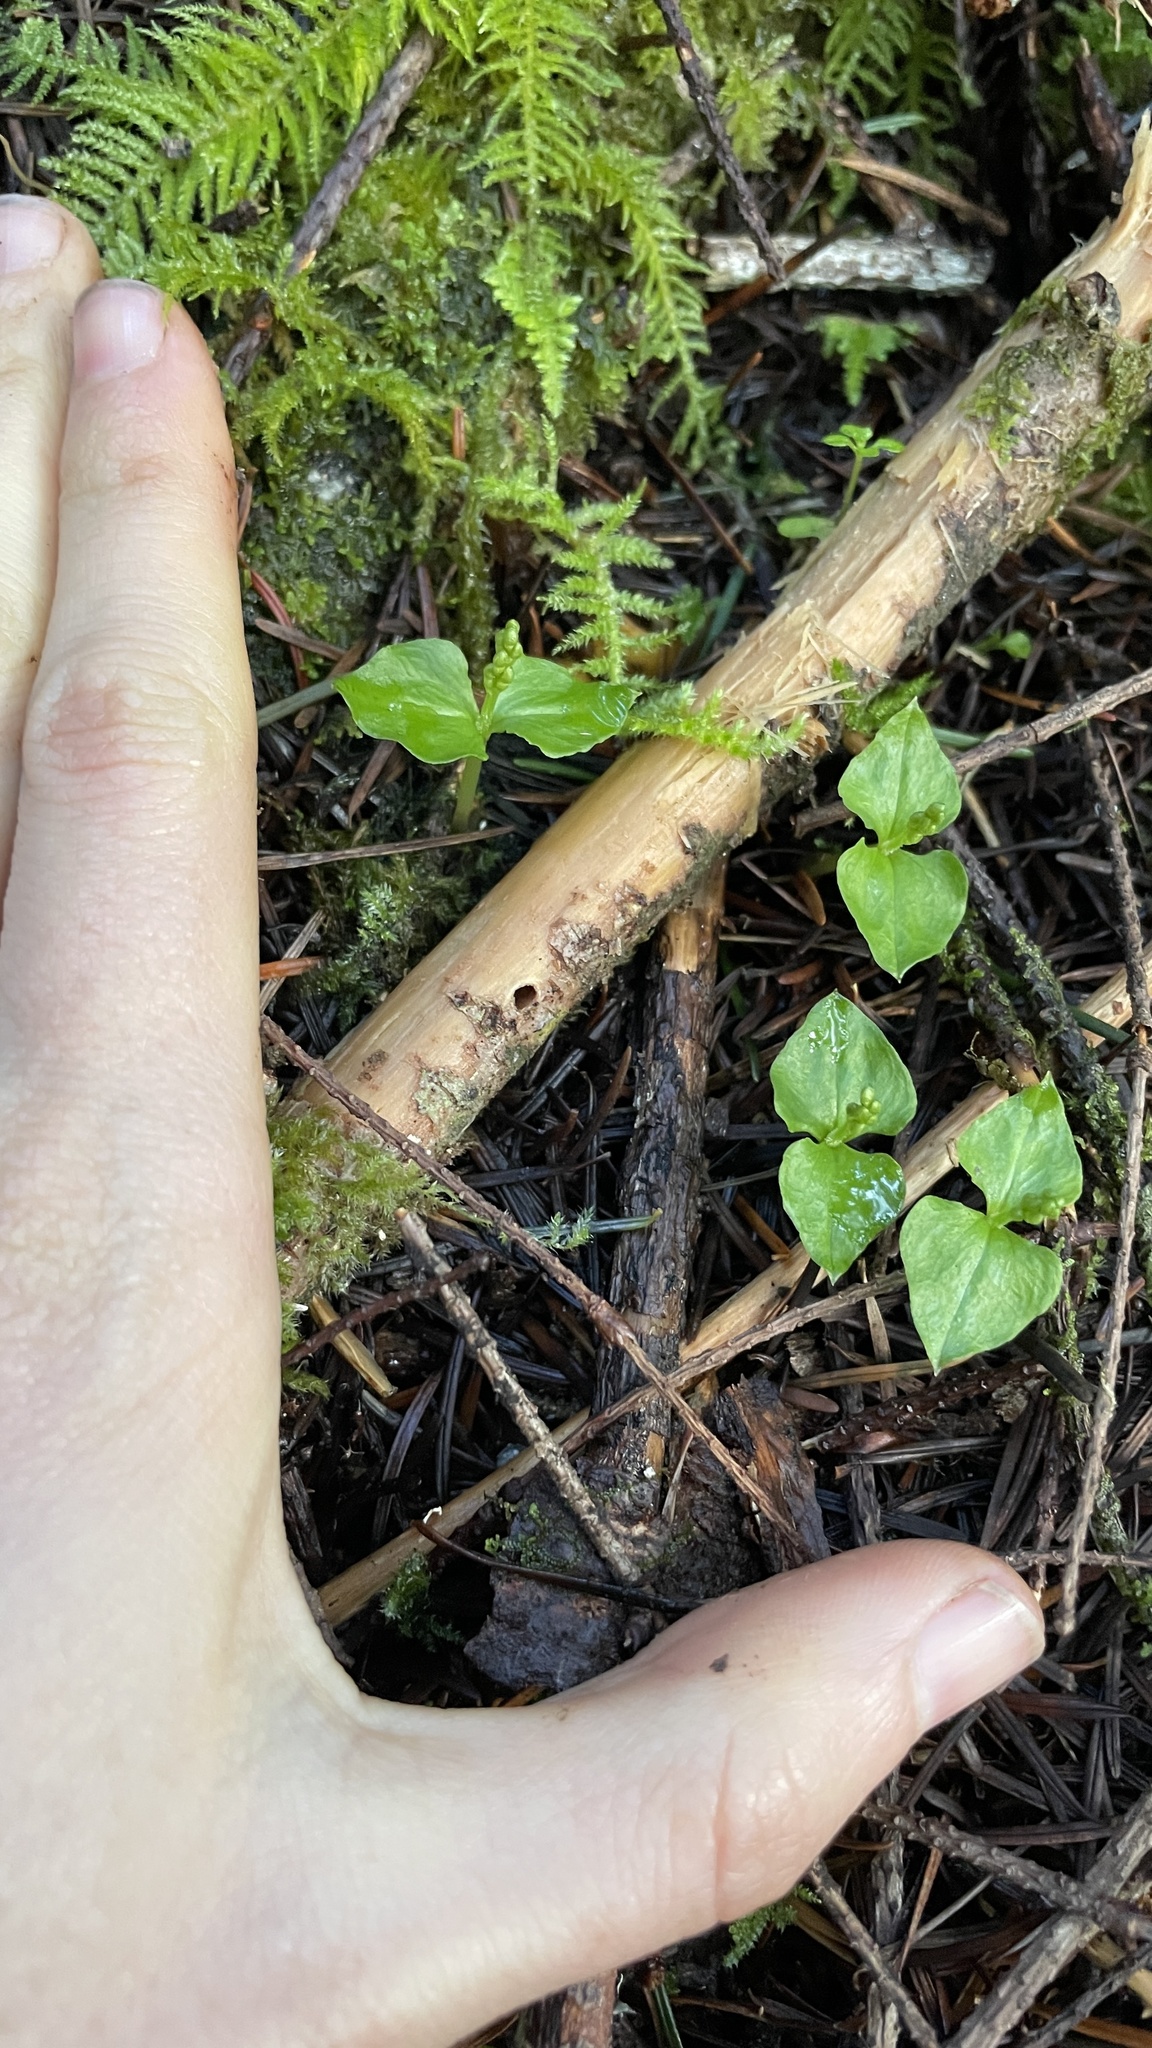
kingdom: Plantae
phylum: Tracheophyta
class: Liliopsida
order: Asparagales
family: Orchidaceae
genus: Neottia
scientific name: Neottia cordata
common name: Lesser twayblade
